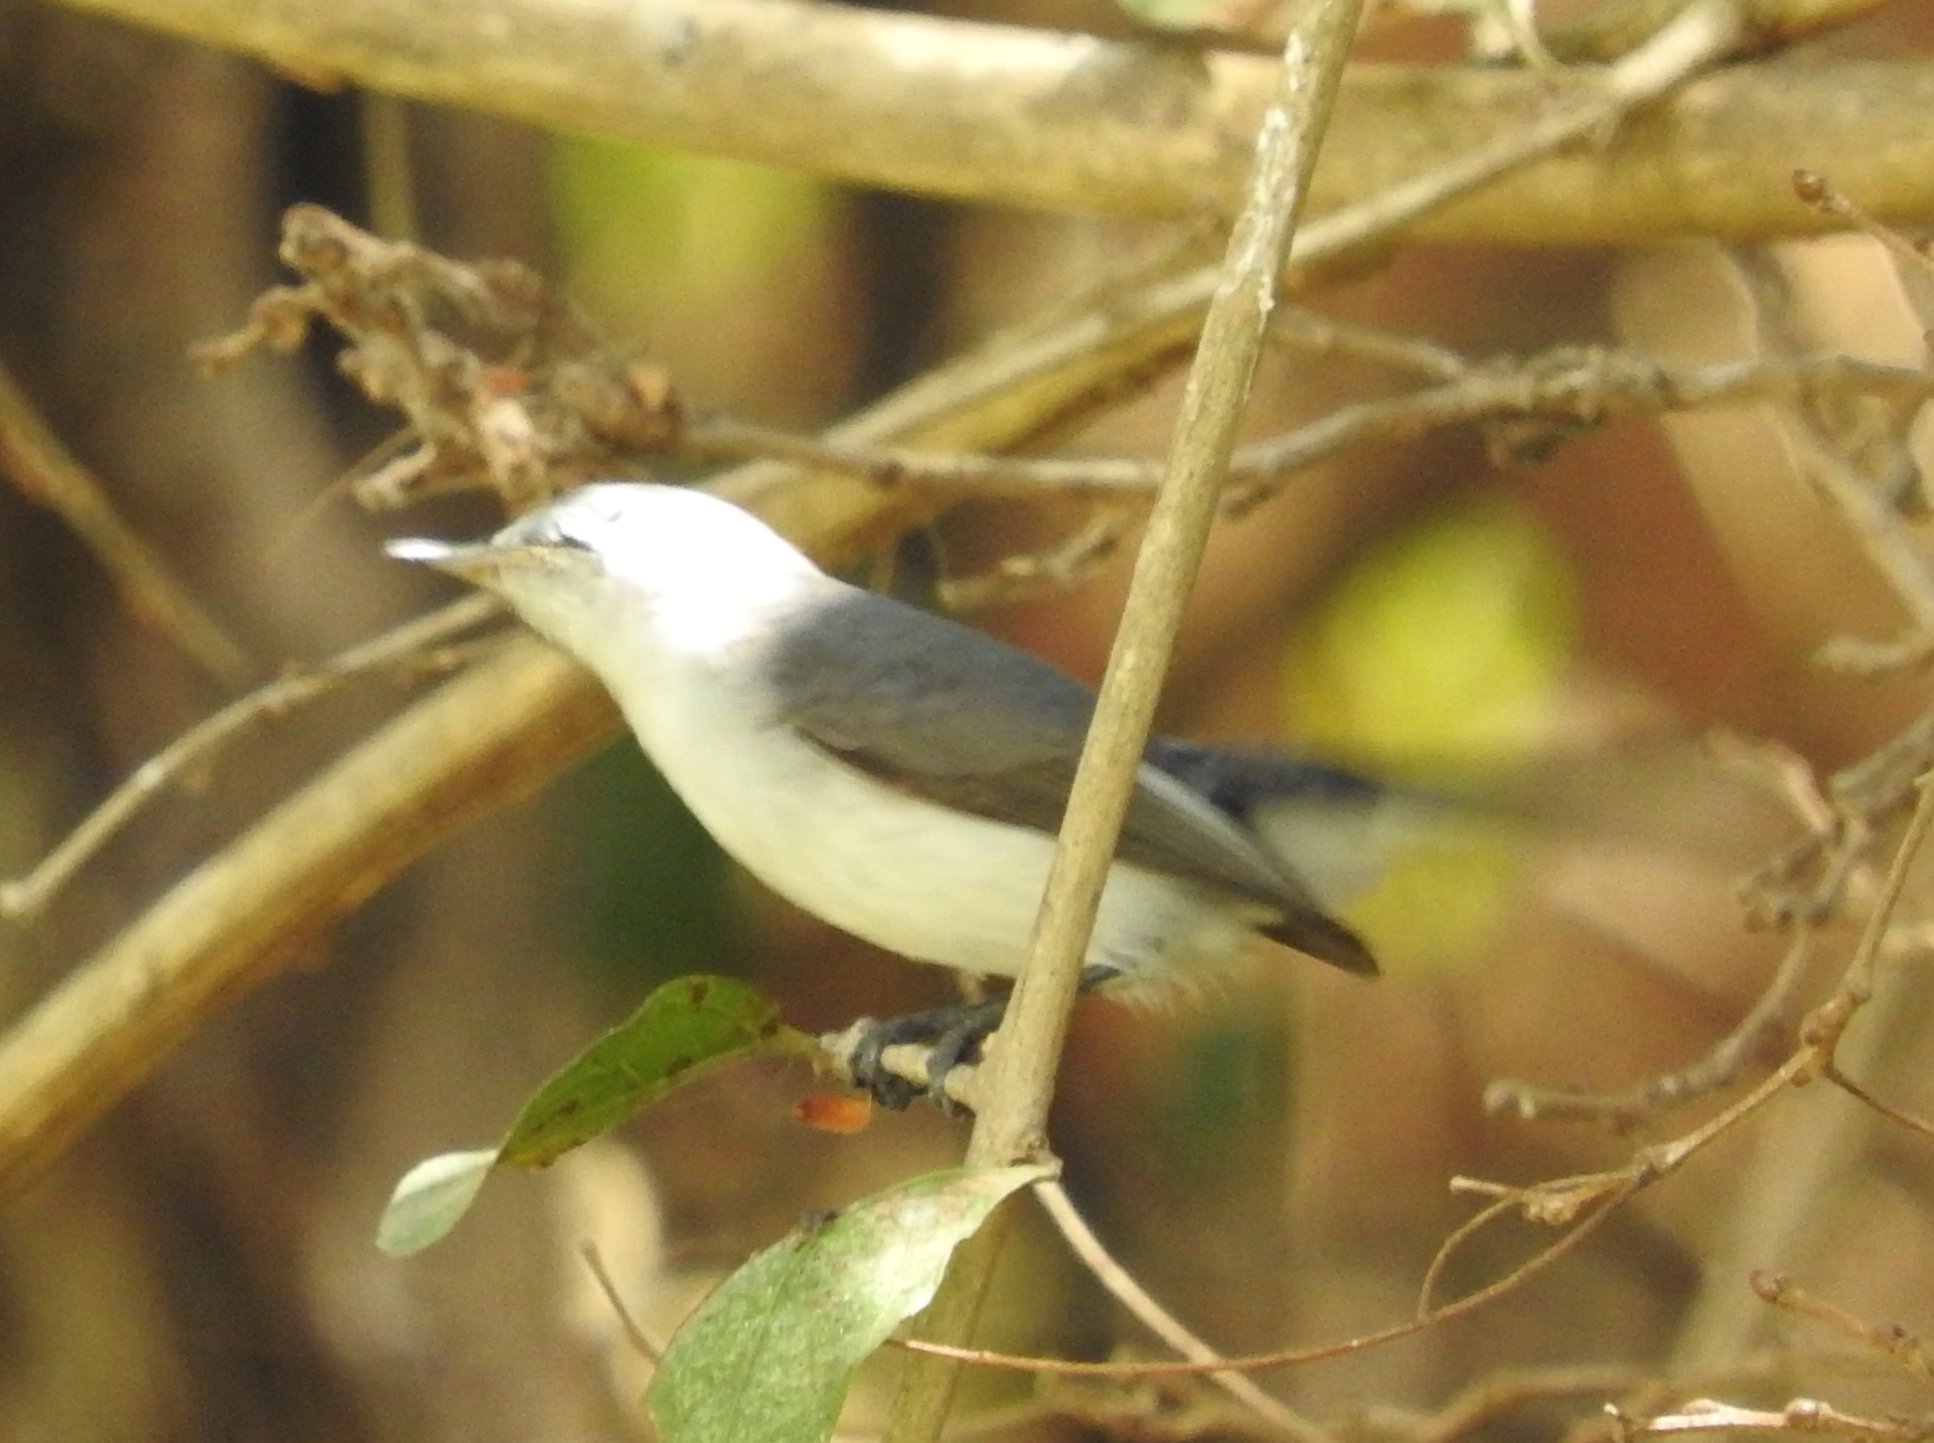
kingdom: Animalia
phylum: Chordata
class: Aves
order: Passeriformes
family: Polioptilidae
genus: Polioptila
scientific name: Polioptila
